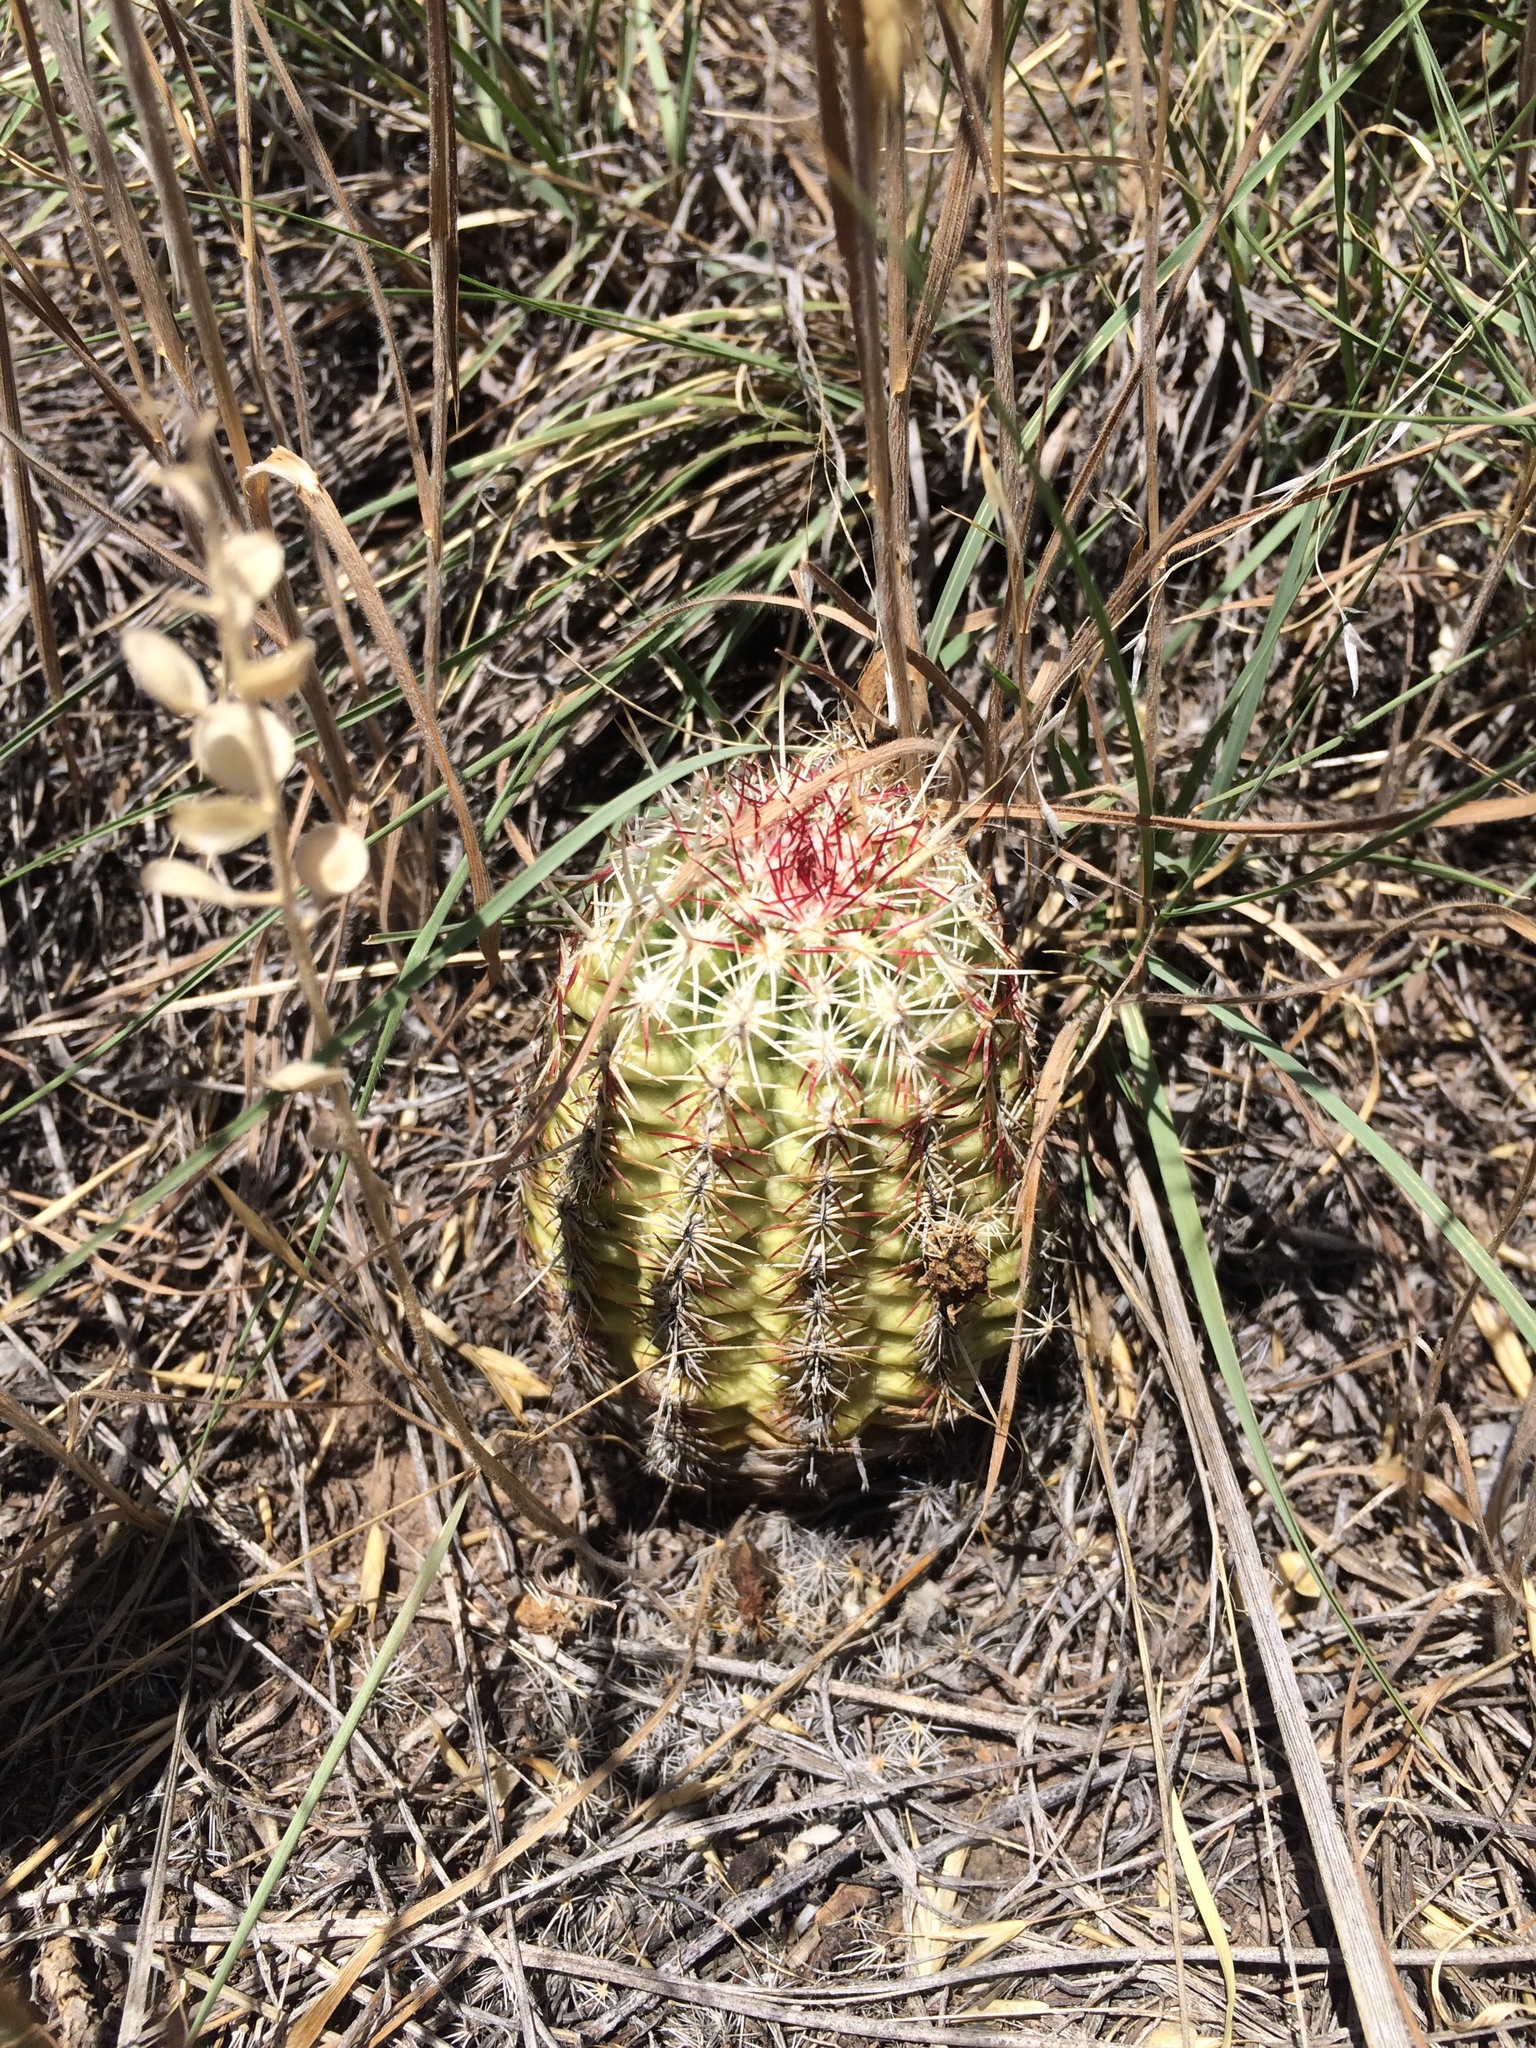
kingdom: Plantae
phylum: Tracheophyta
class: Magnoliopsida
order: Caryophyllales
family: Cactaceae
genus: Echinocereus
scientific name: Echinocereus viridiflorus
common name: Nylon hedgehog cactus
